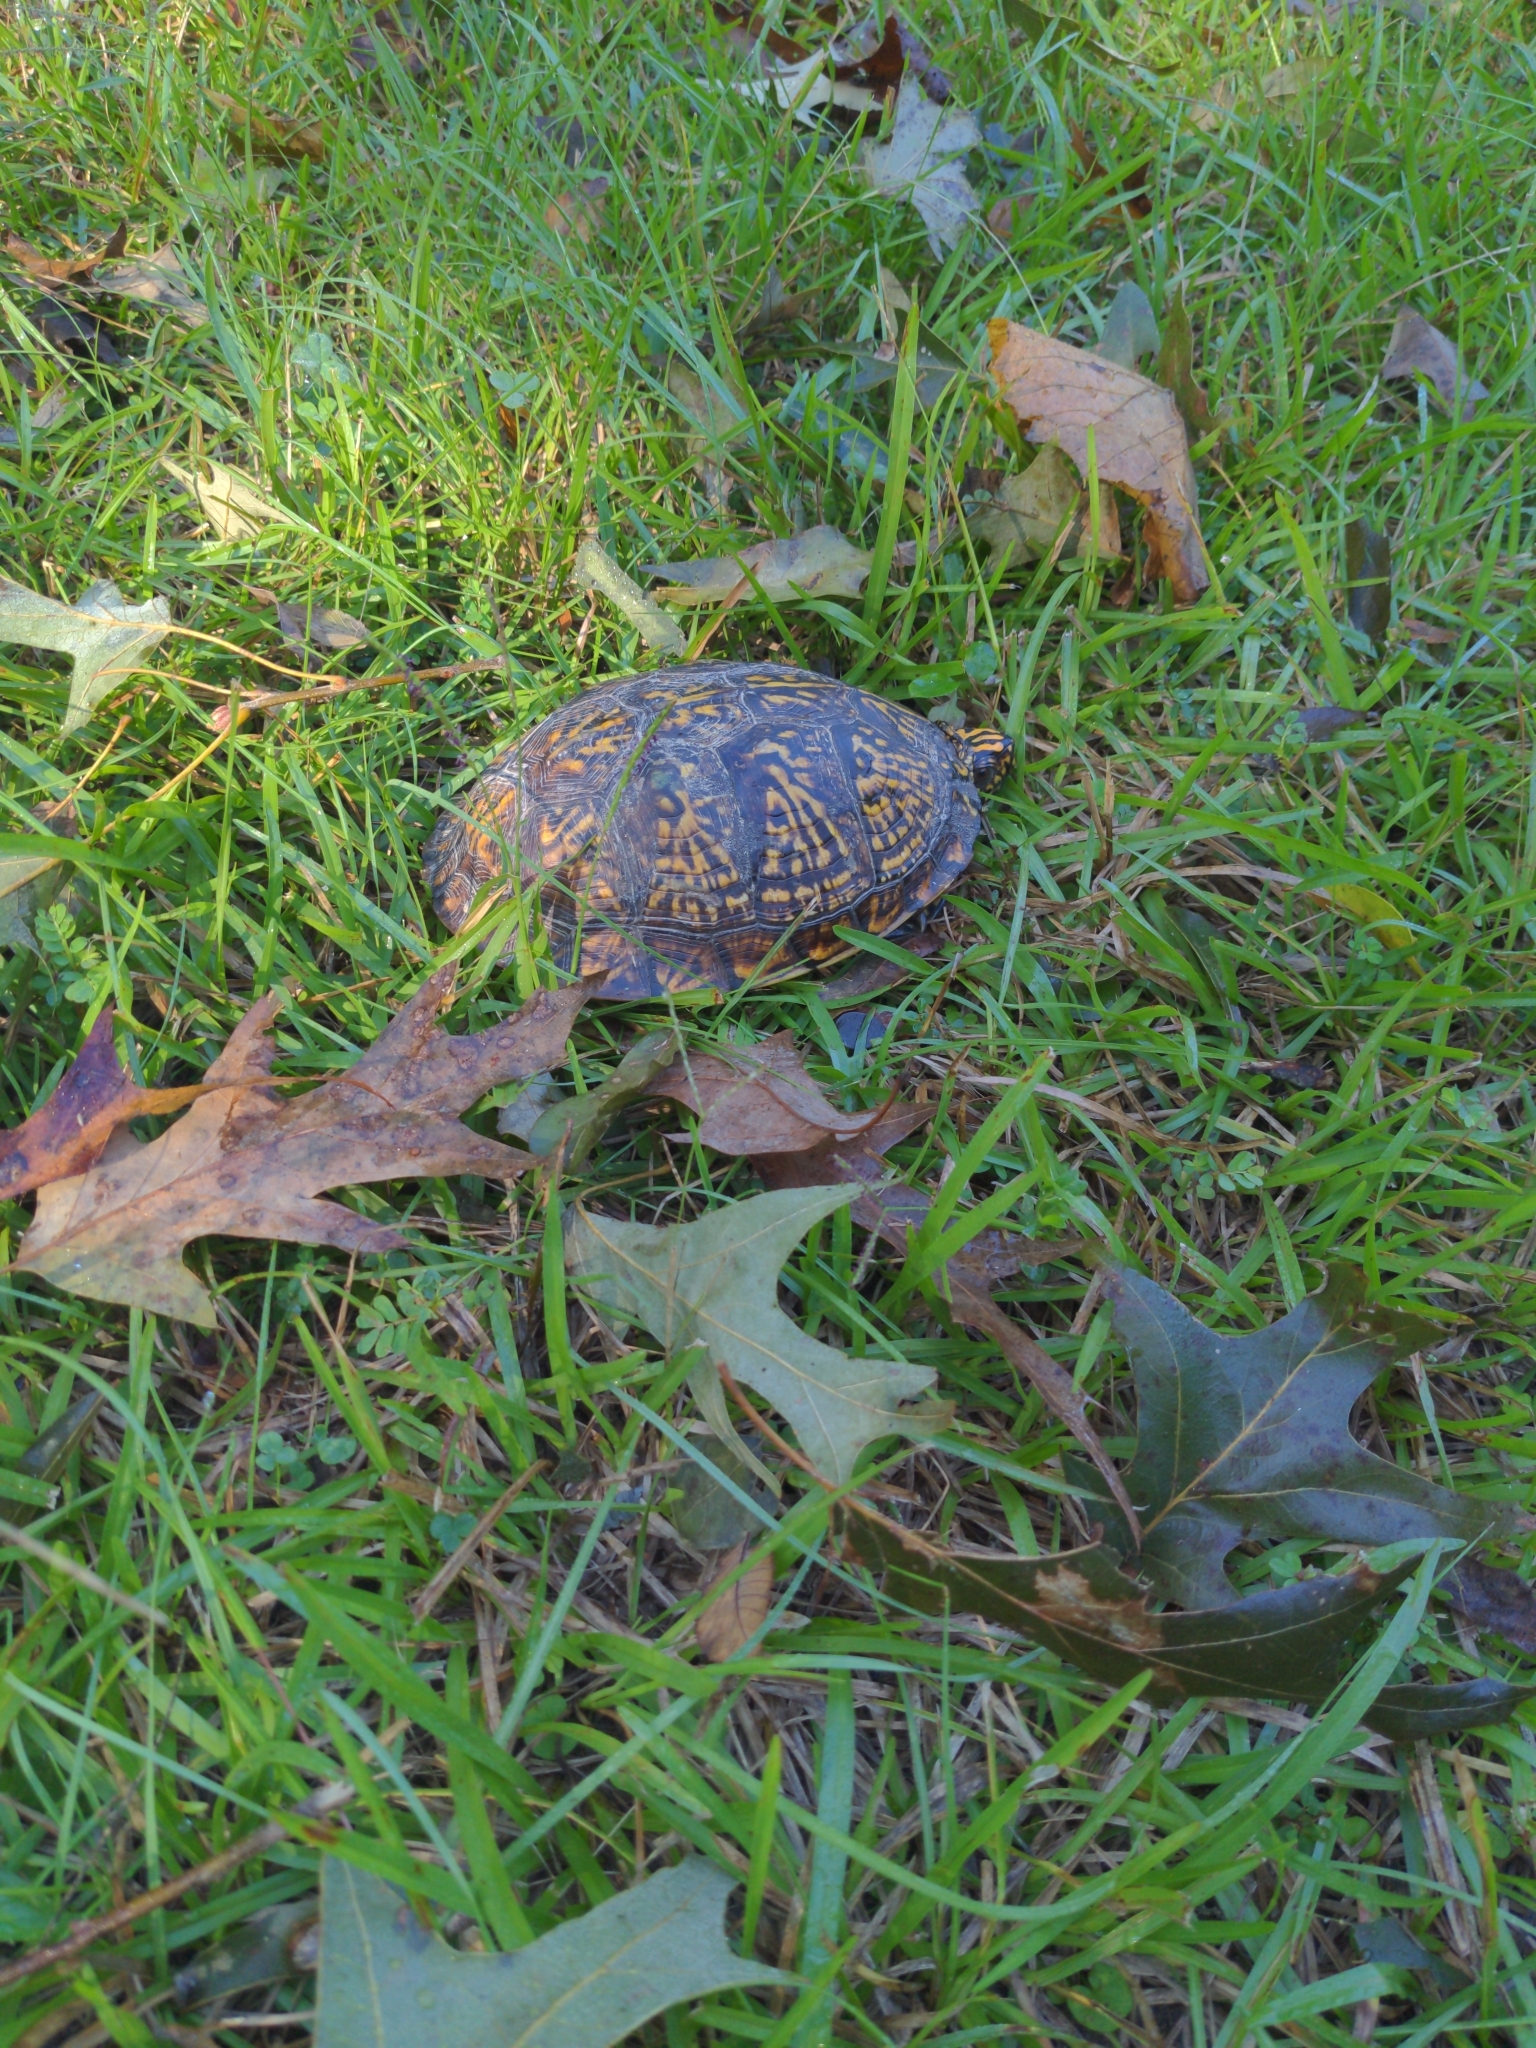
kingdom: Animalia
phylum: Chordata
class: Testudines
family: Emydidae
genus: Terrapene
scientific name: Terrapene carolina
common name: Common box turtle
